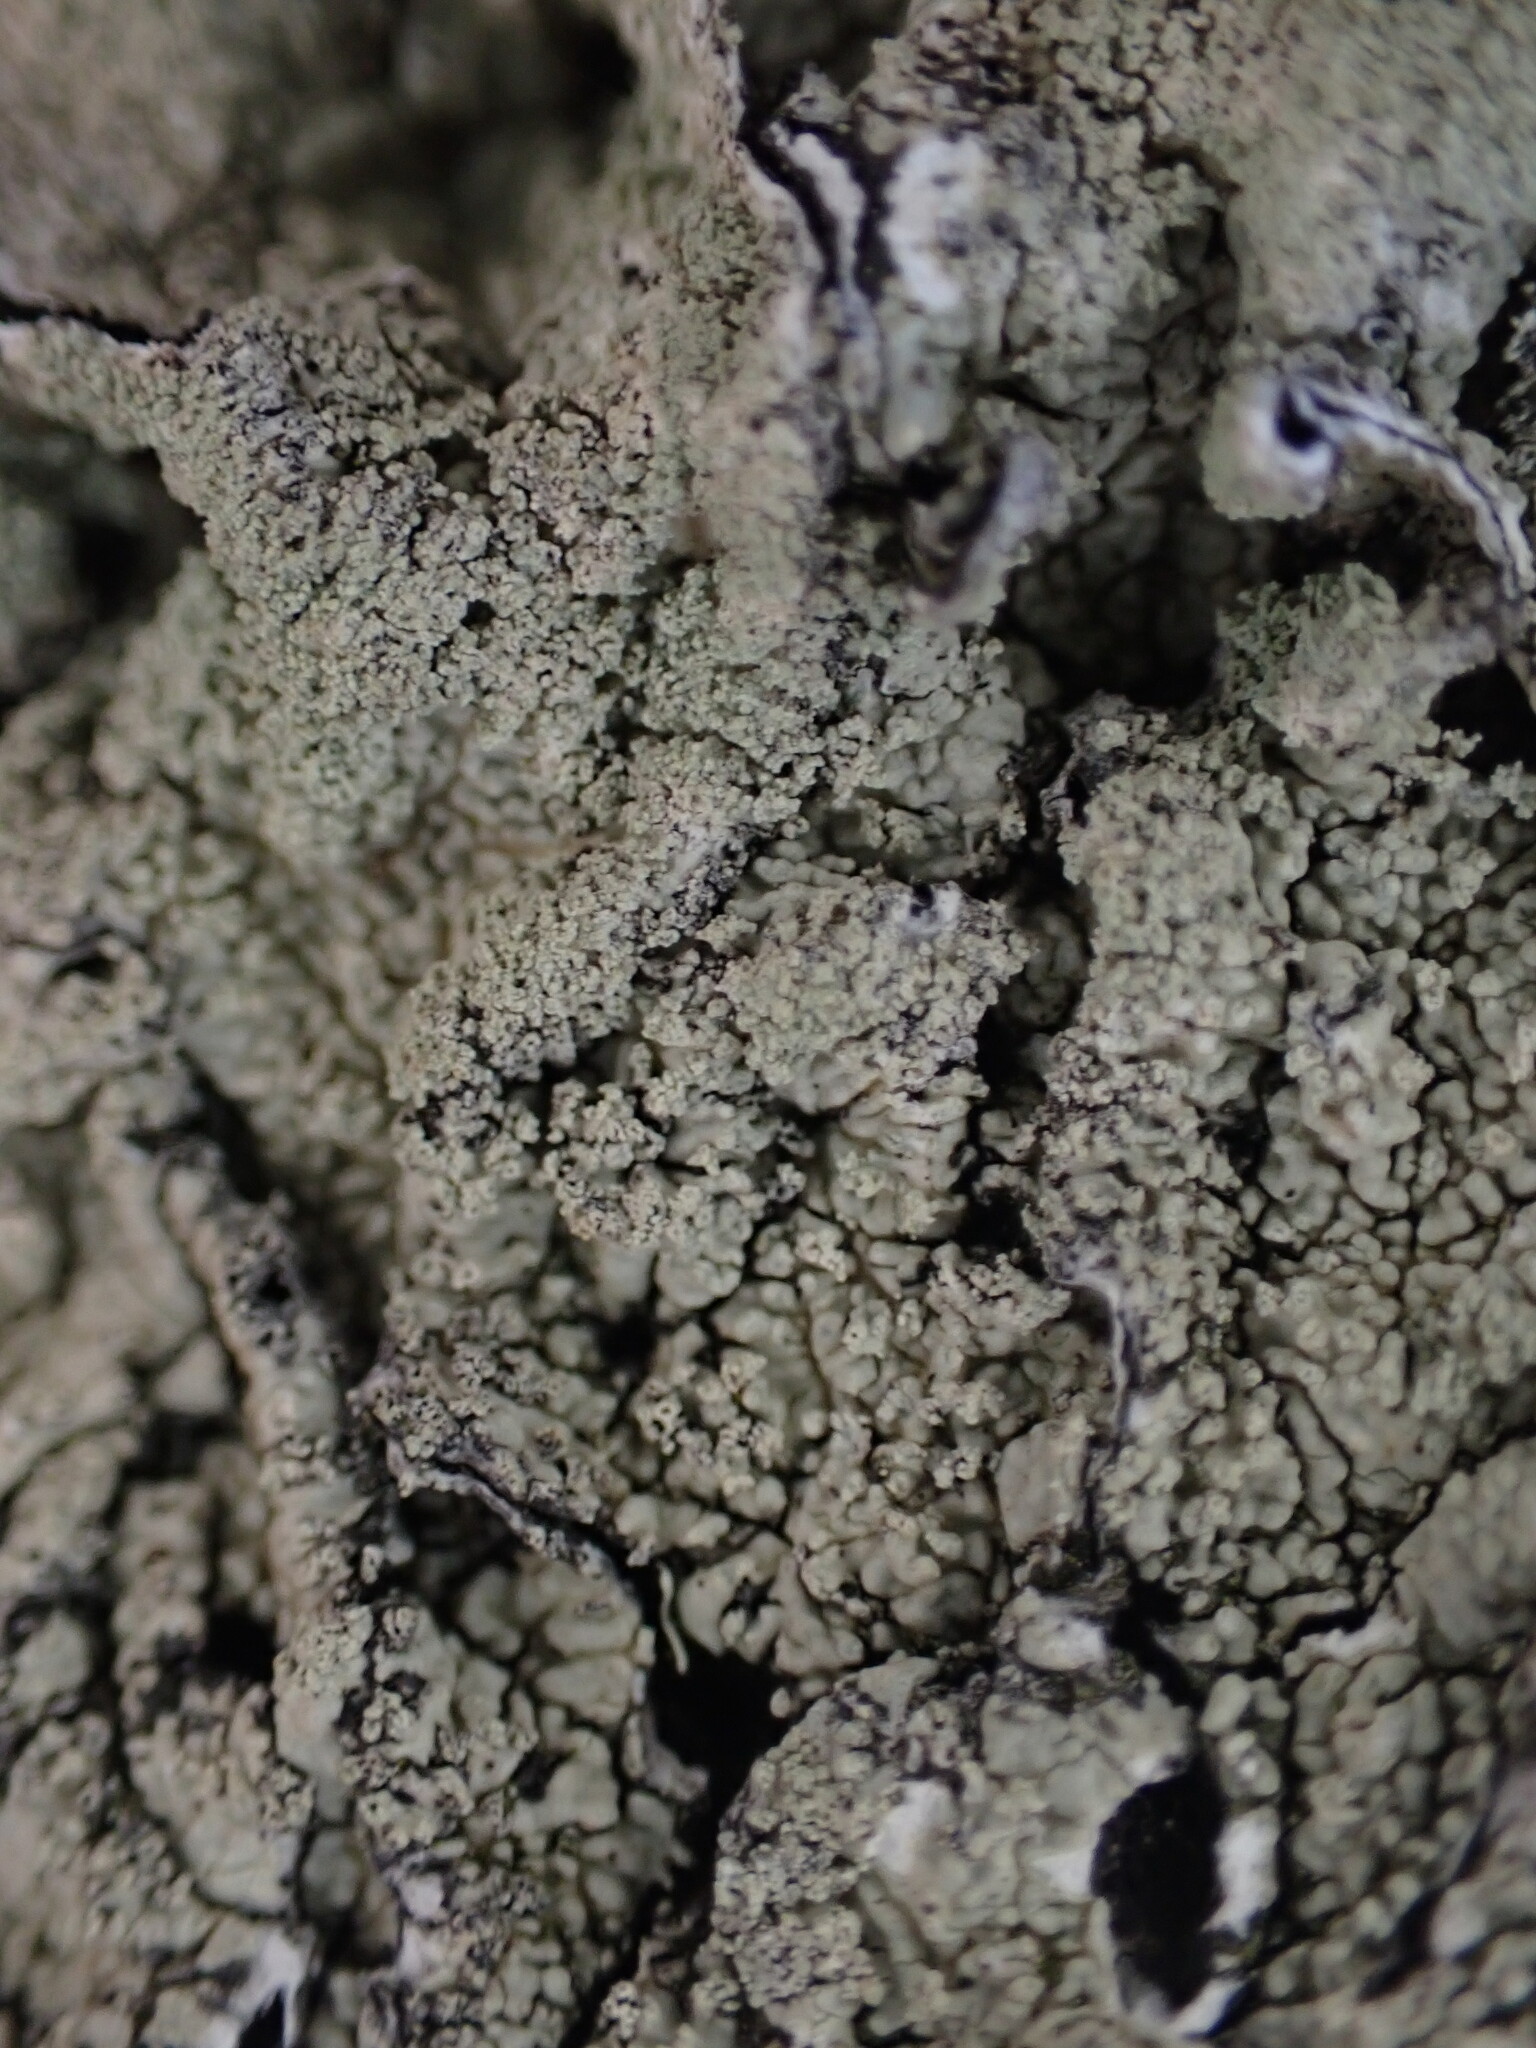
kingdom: Fungi
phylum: Ascomycota
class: Lecanoromycetes
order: Lecanorales
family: Parmeliaceae
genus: Flavoparmelia
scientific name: Flavoparmelia caperata
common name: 40-mile per hour lichen
